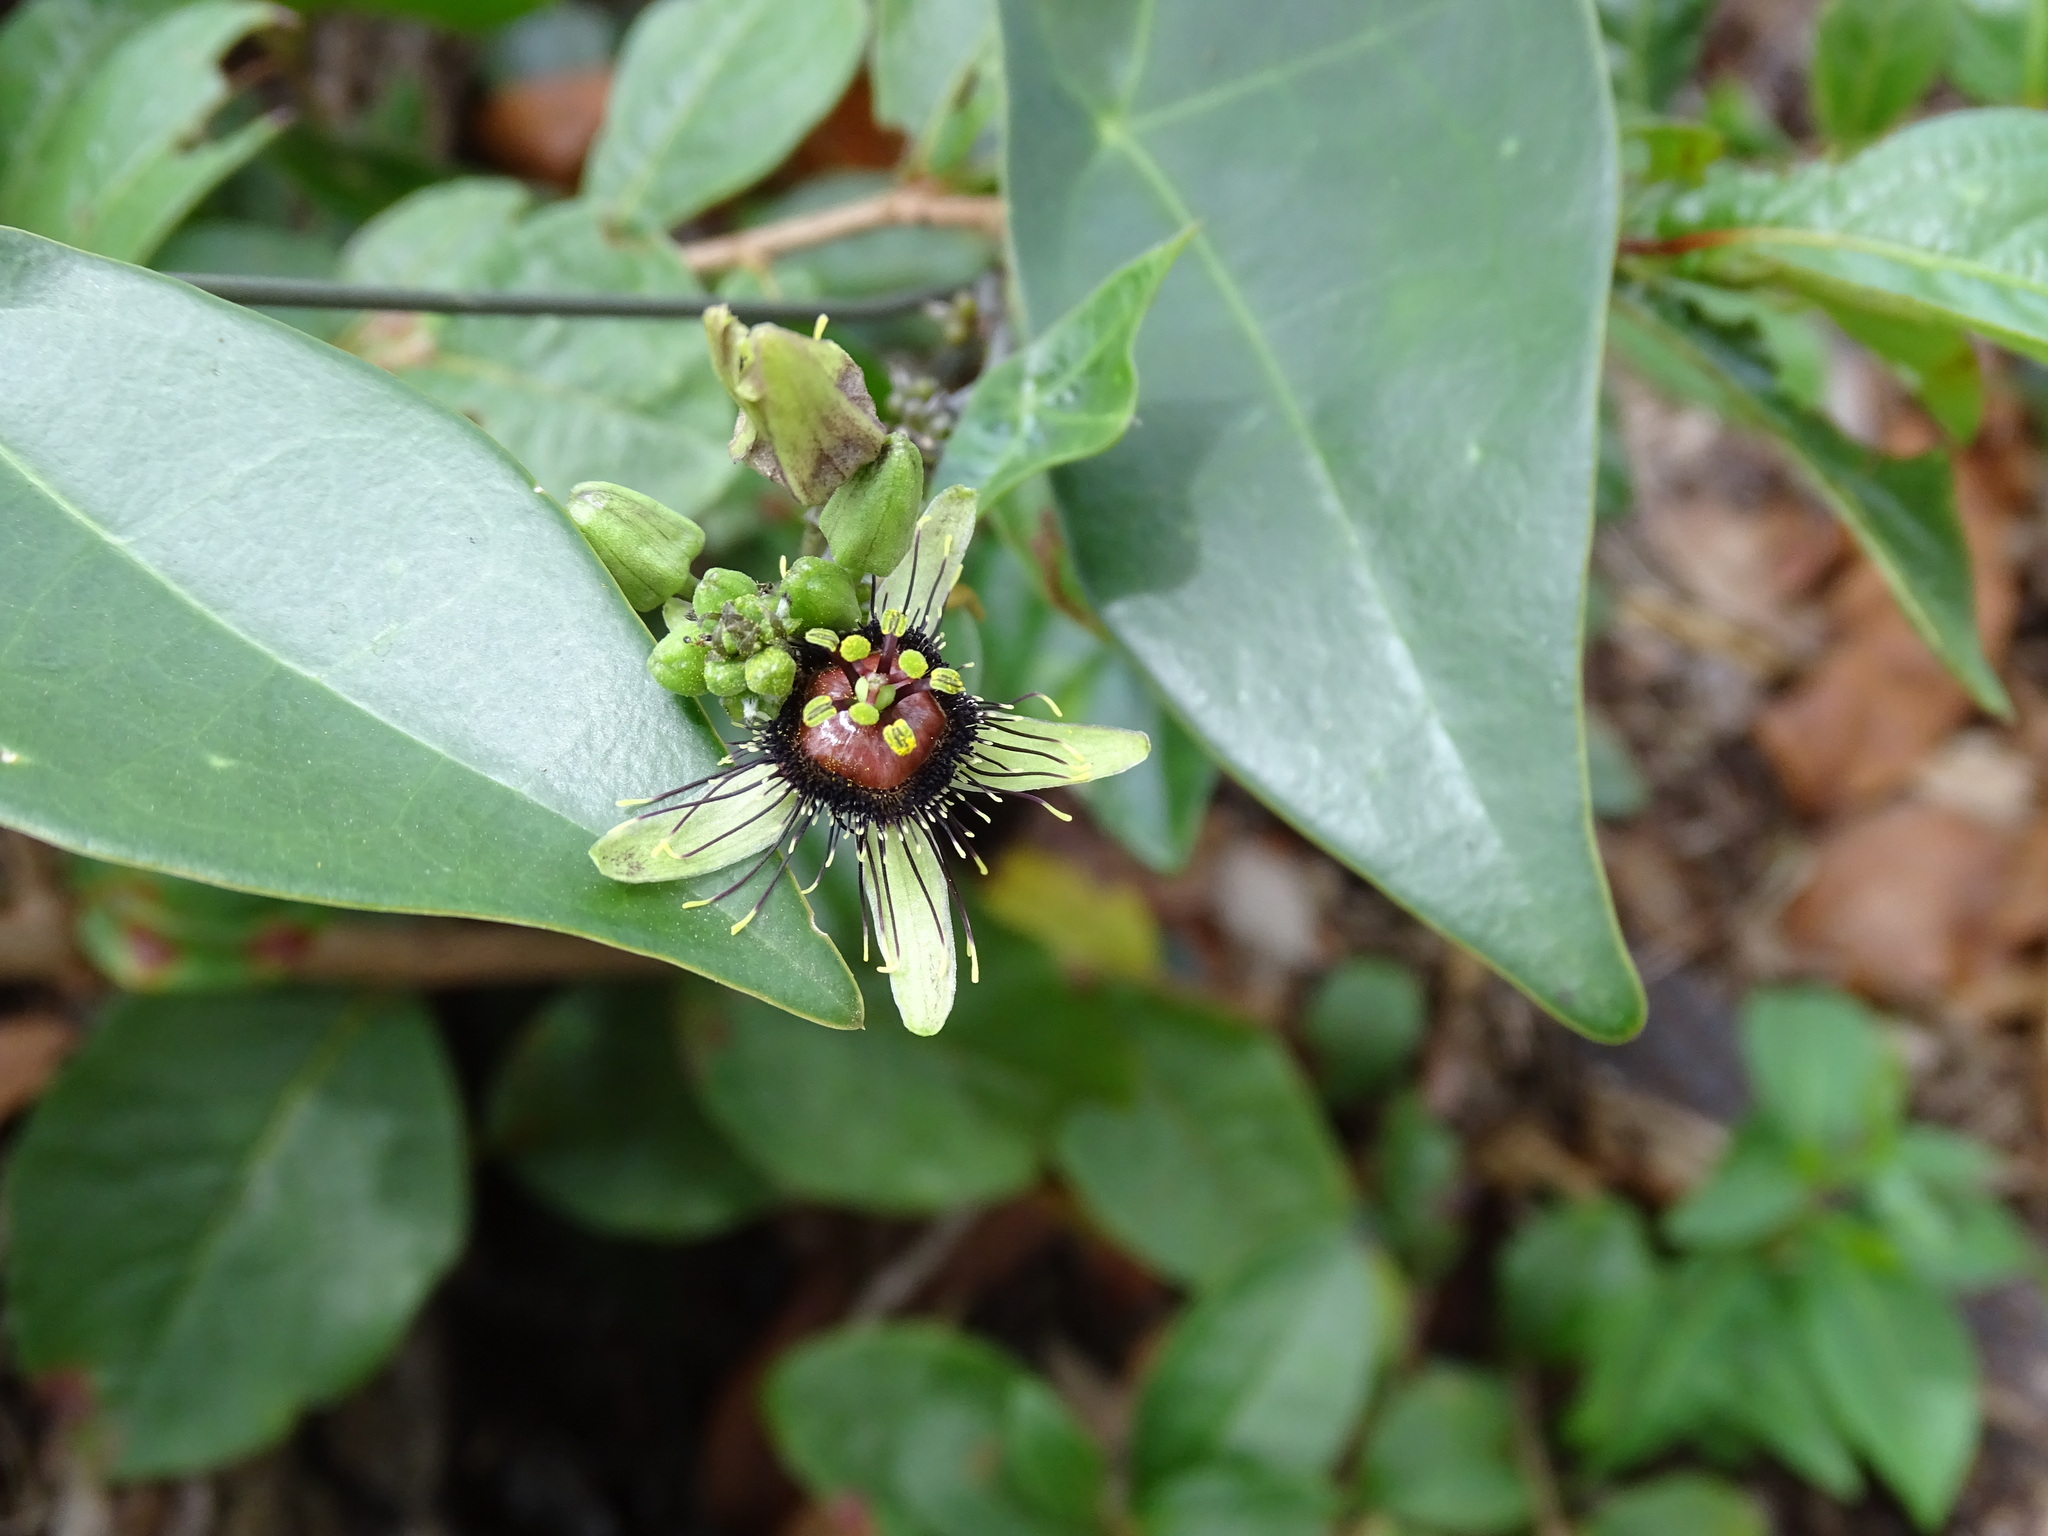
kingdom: Plantae
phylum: Tracheophyta
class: Magnoliopsida
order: Malpighiales
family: Passifloraceae
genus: Passiflora
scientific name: Passiflora itzensis
